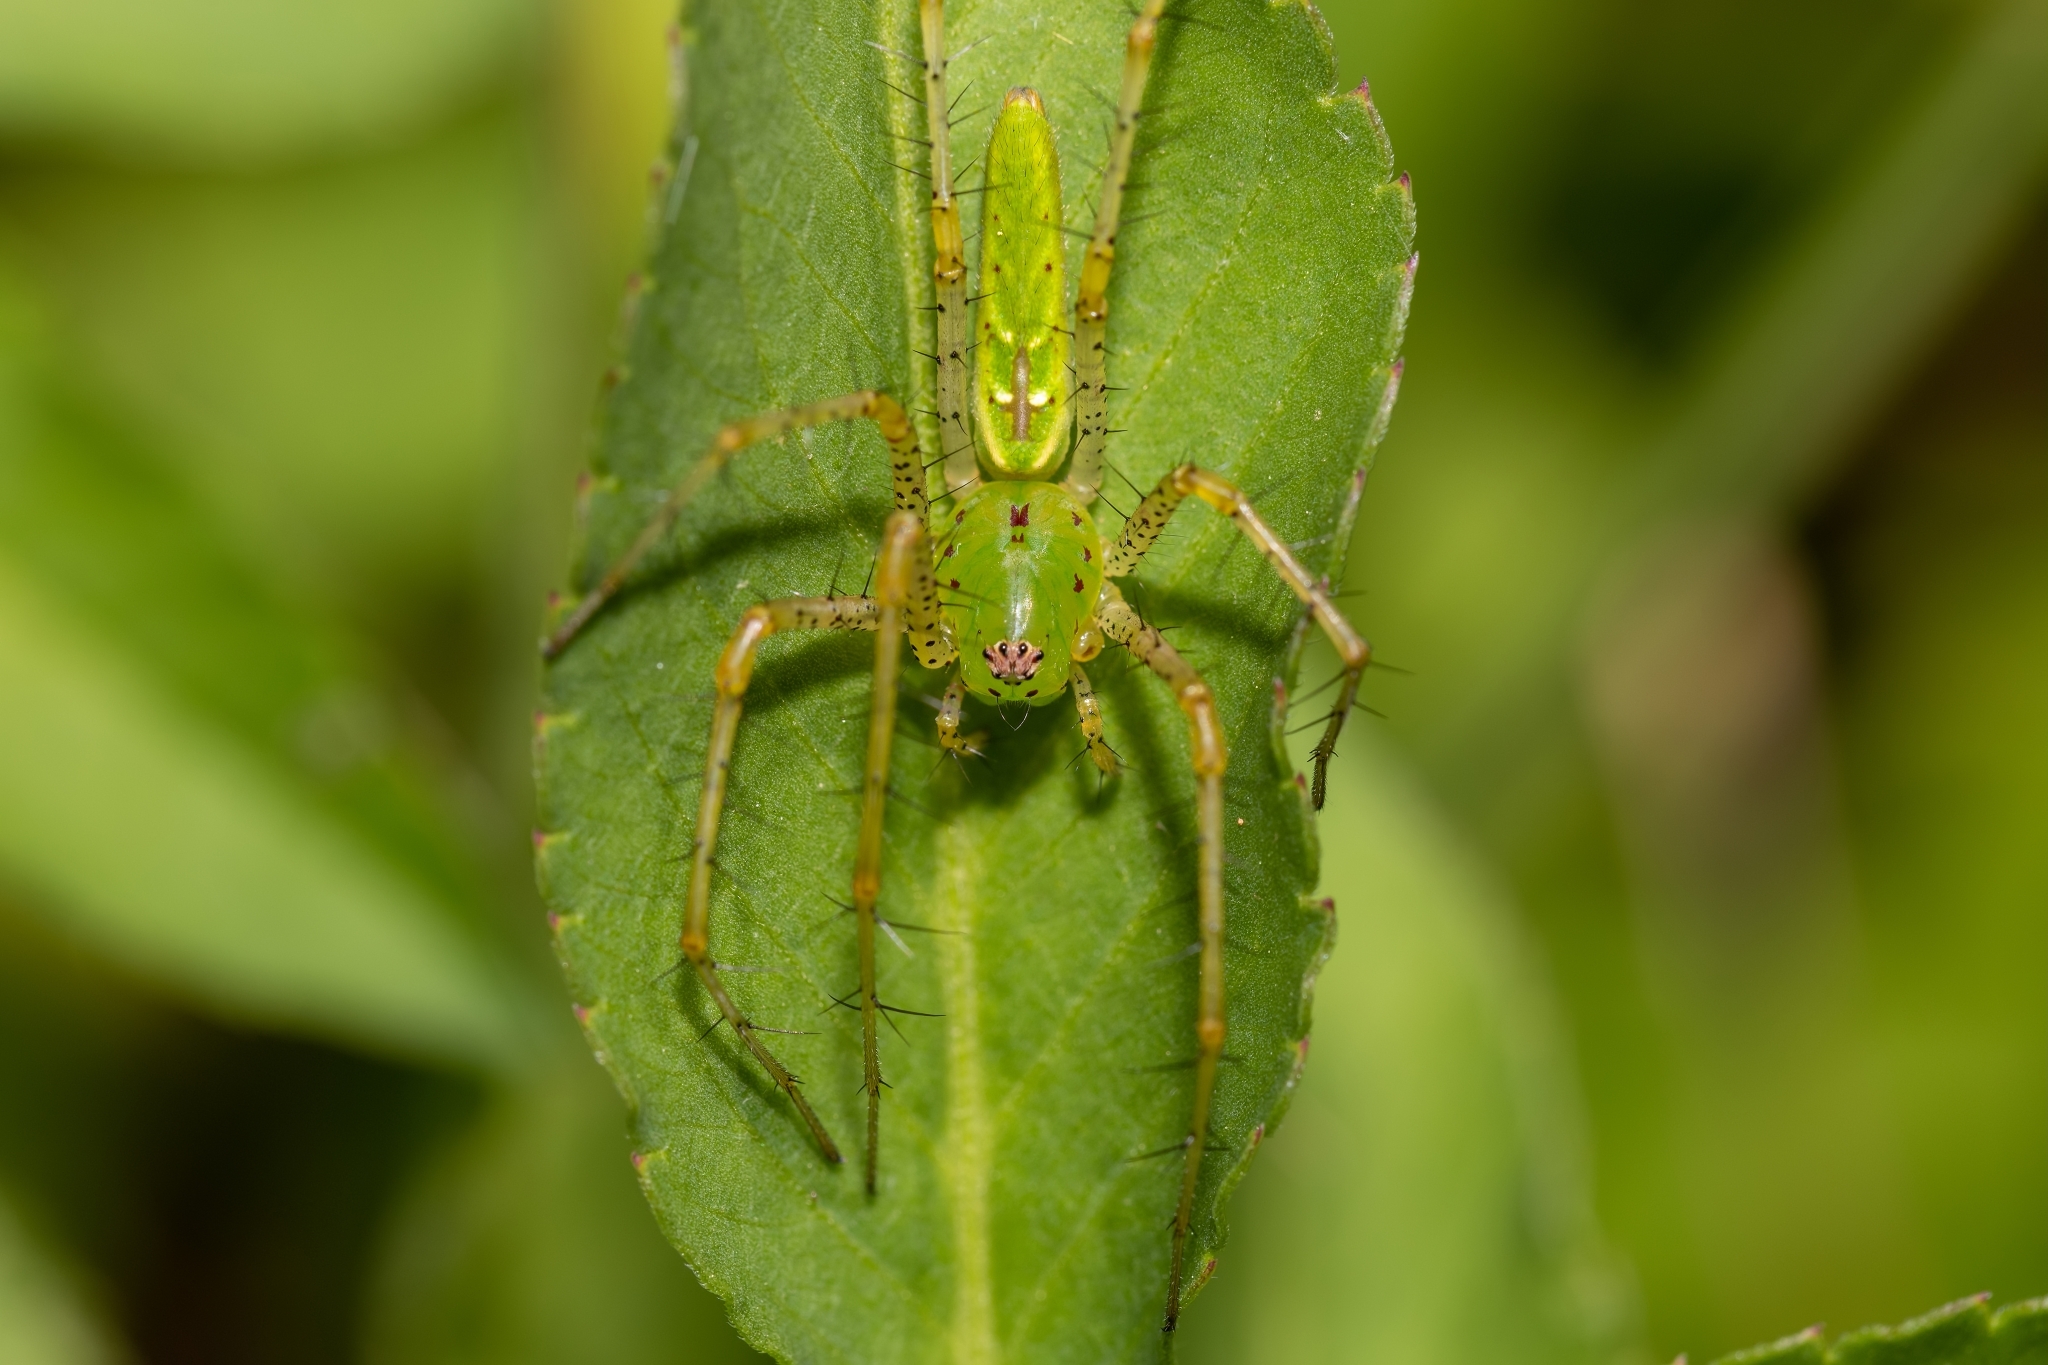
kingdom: Animalia
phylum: Arthropoda
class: Arachnida
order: Araneae
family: Oxyopidae
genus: Peucetia
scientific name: Peucetia viridans
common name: Lynx spiders
